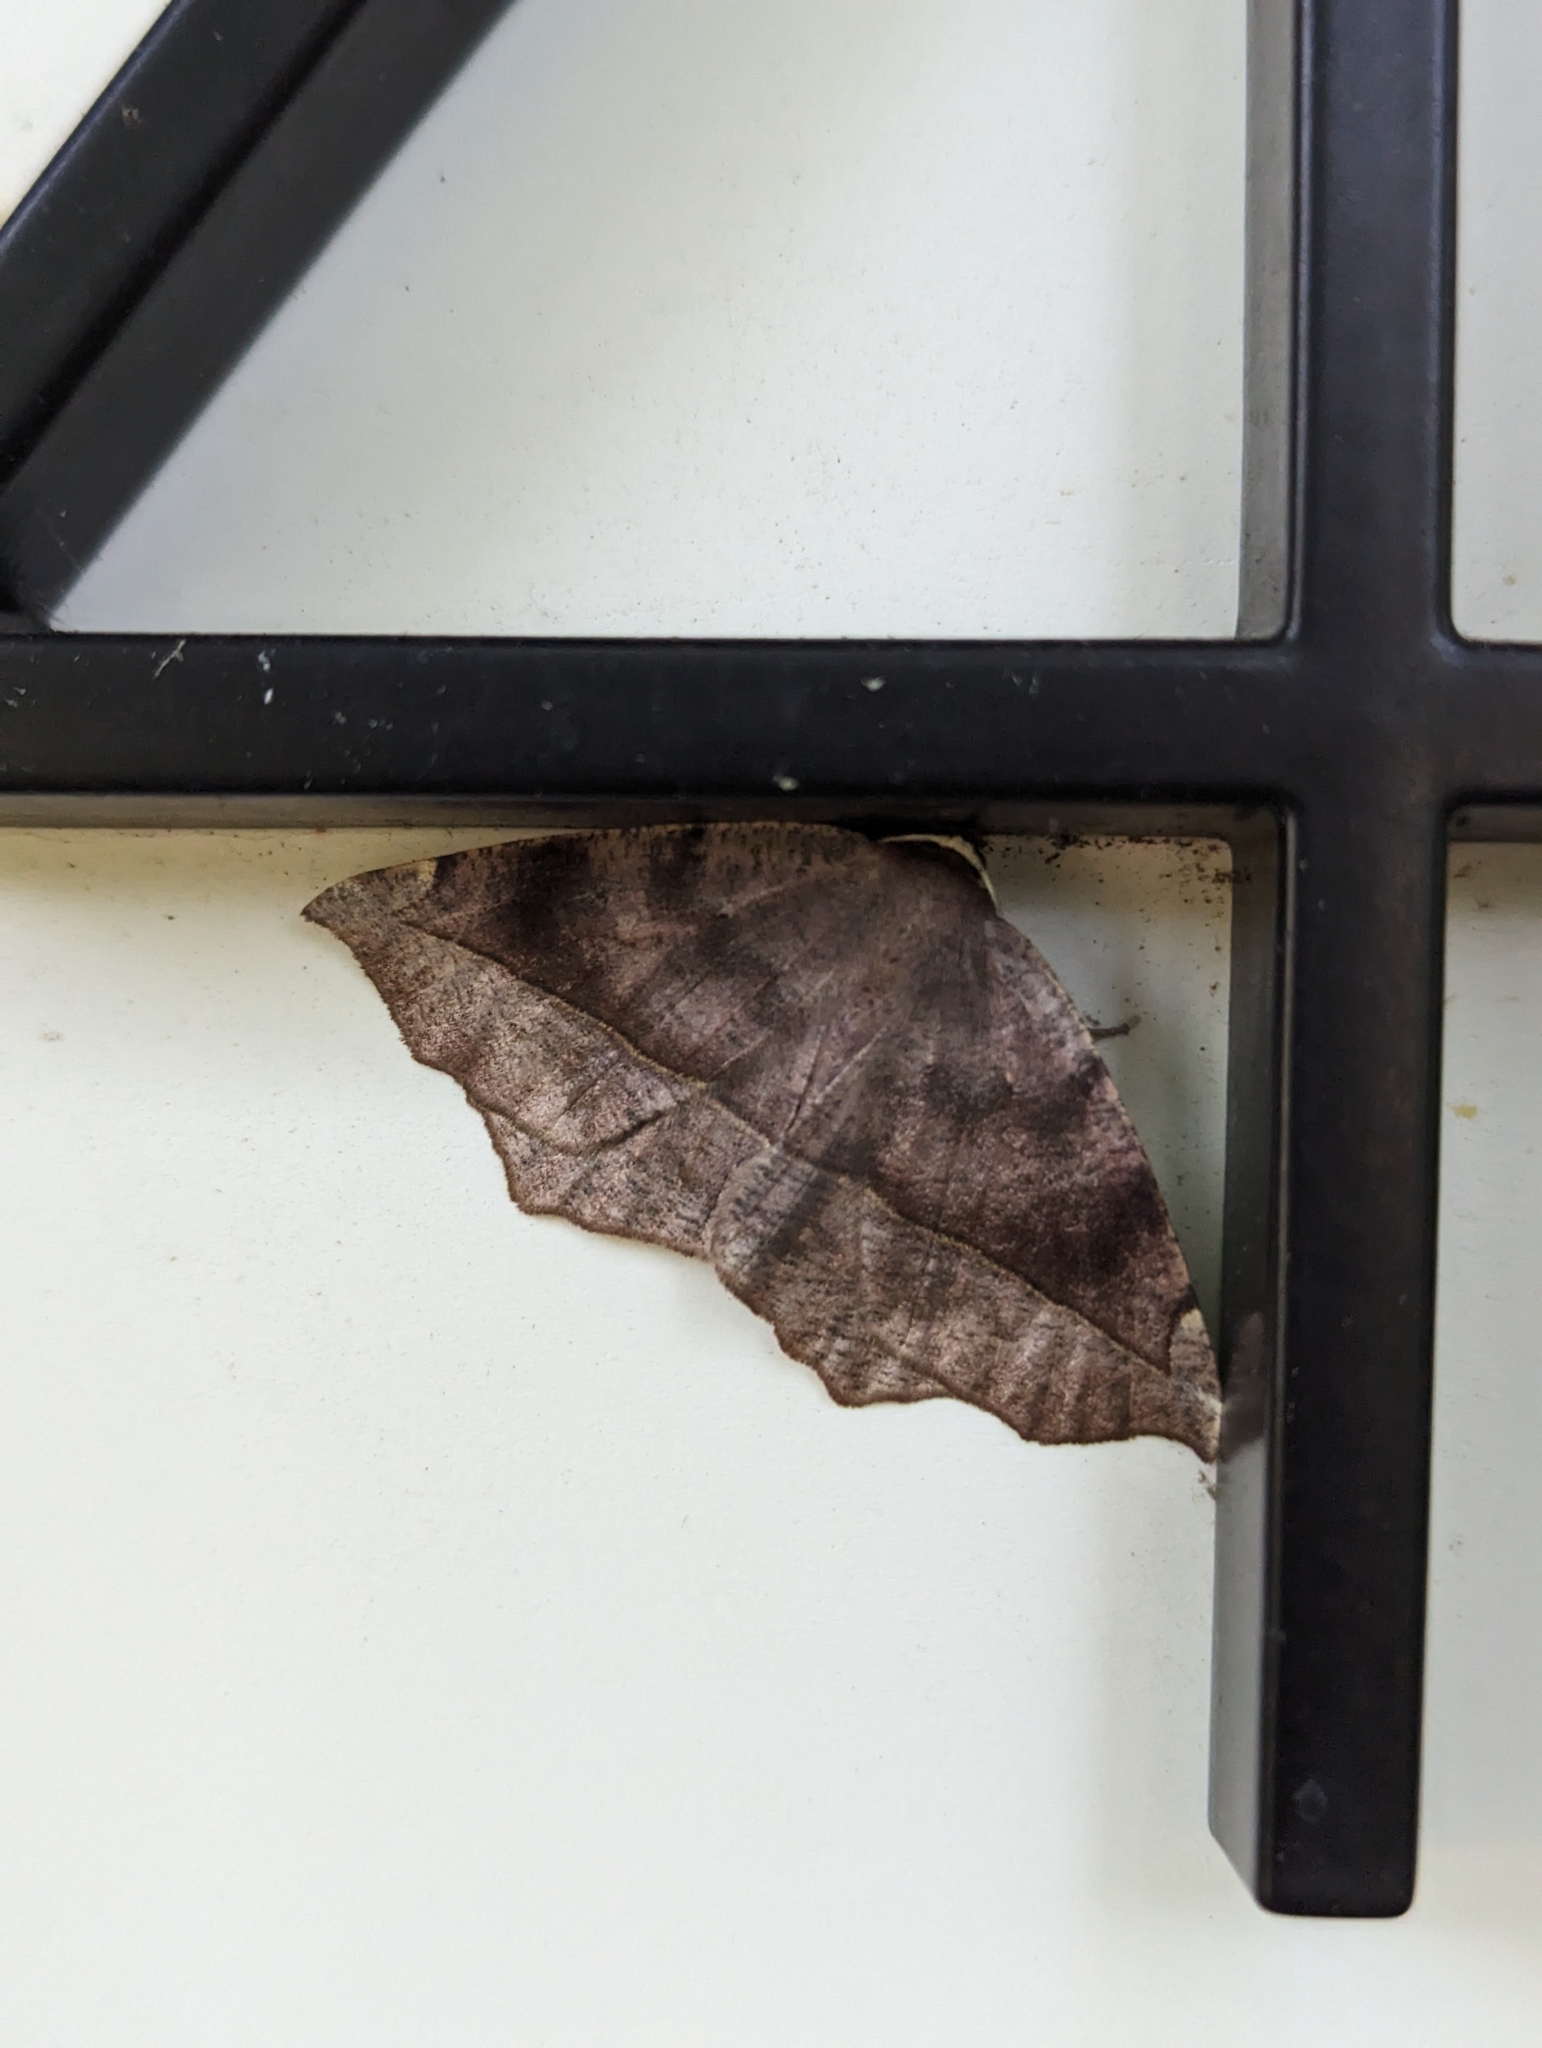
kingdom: Animalia
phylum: Arthropoda
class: Insecta
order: Lepidoptera
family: Geometridae
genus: Eutrapela
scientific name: Eutrapela clemataria
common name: Curved-toothed geometer
